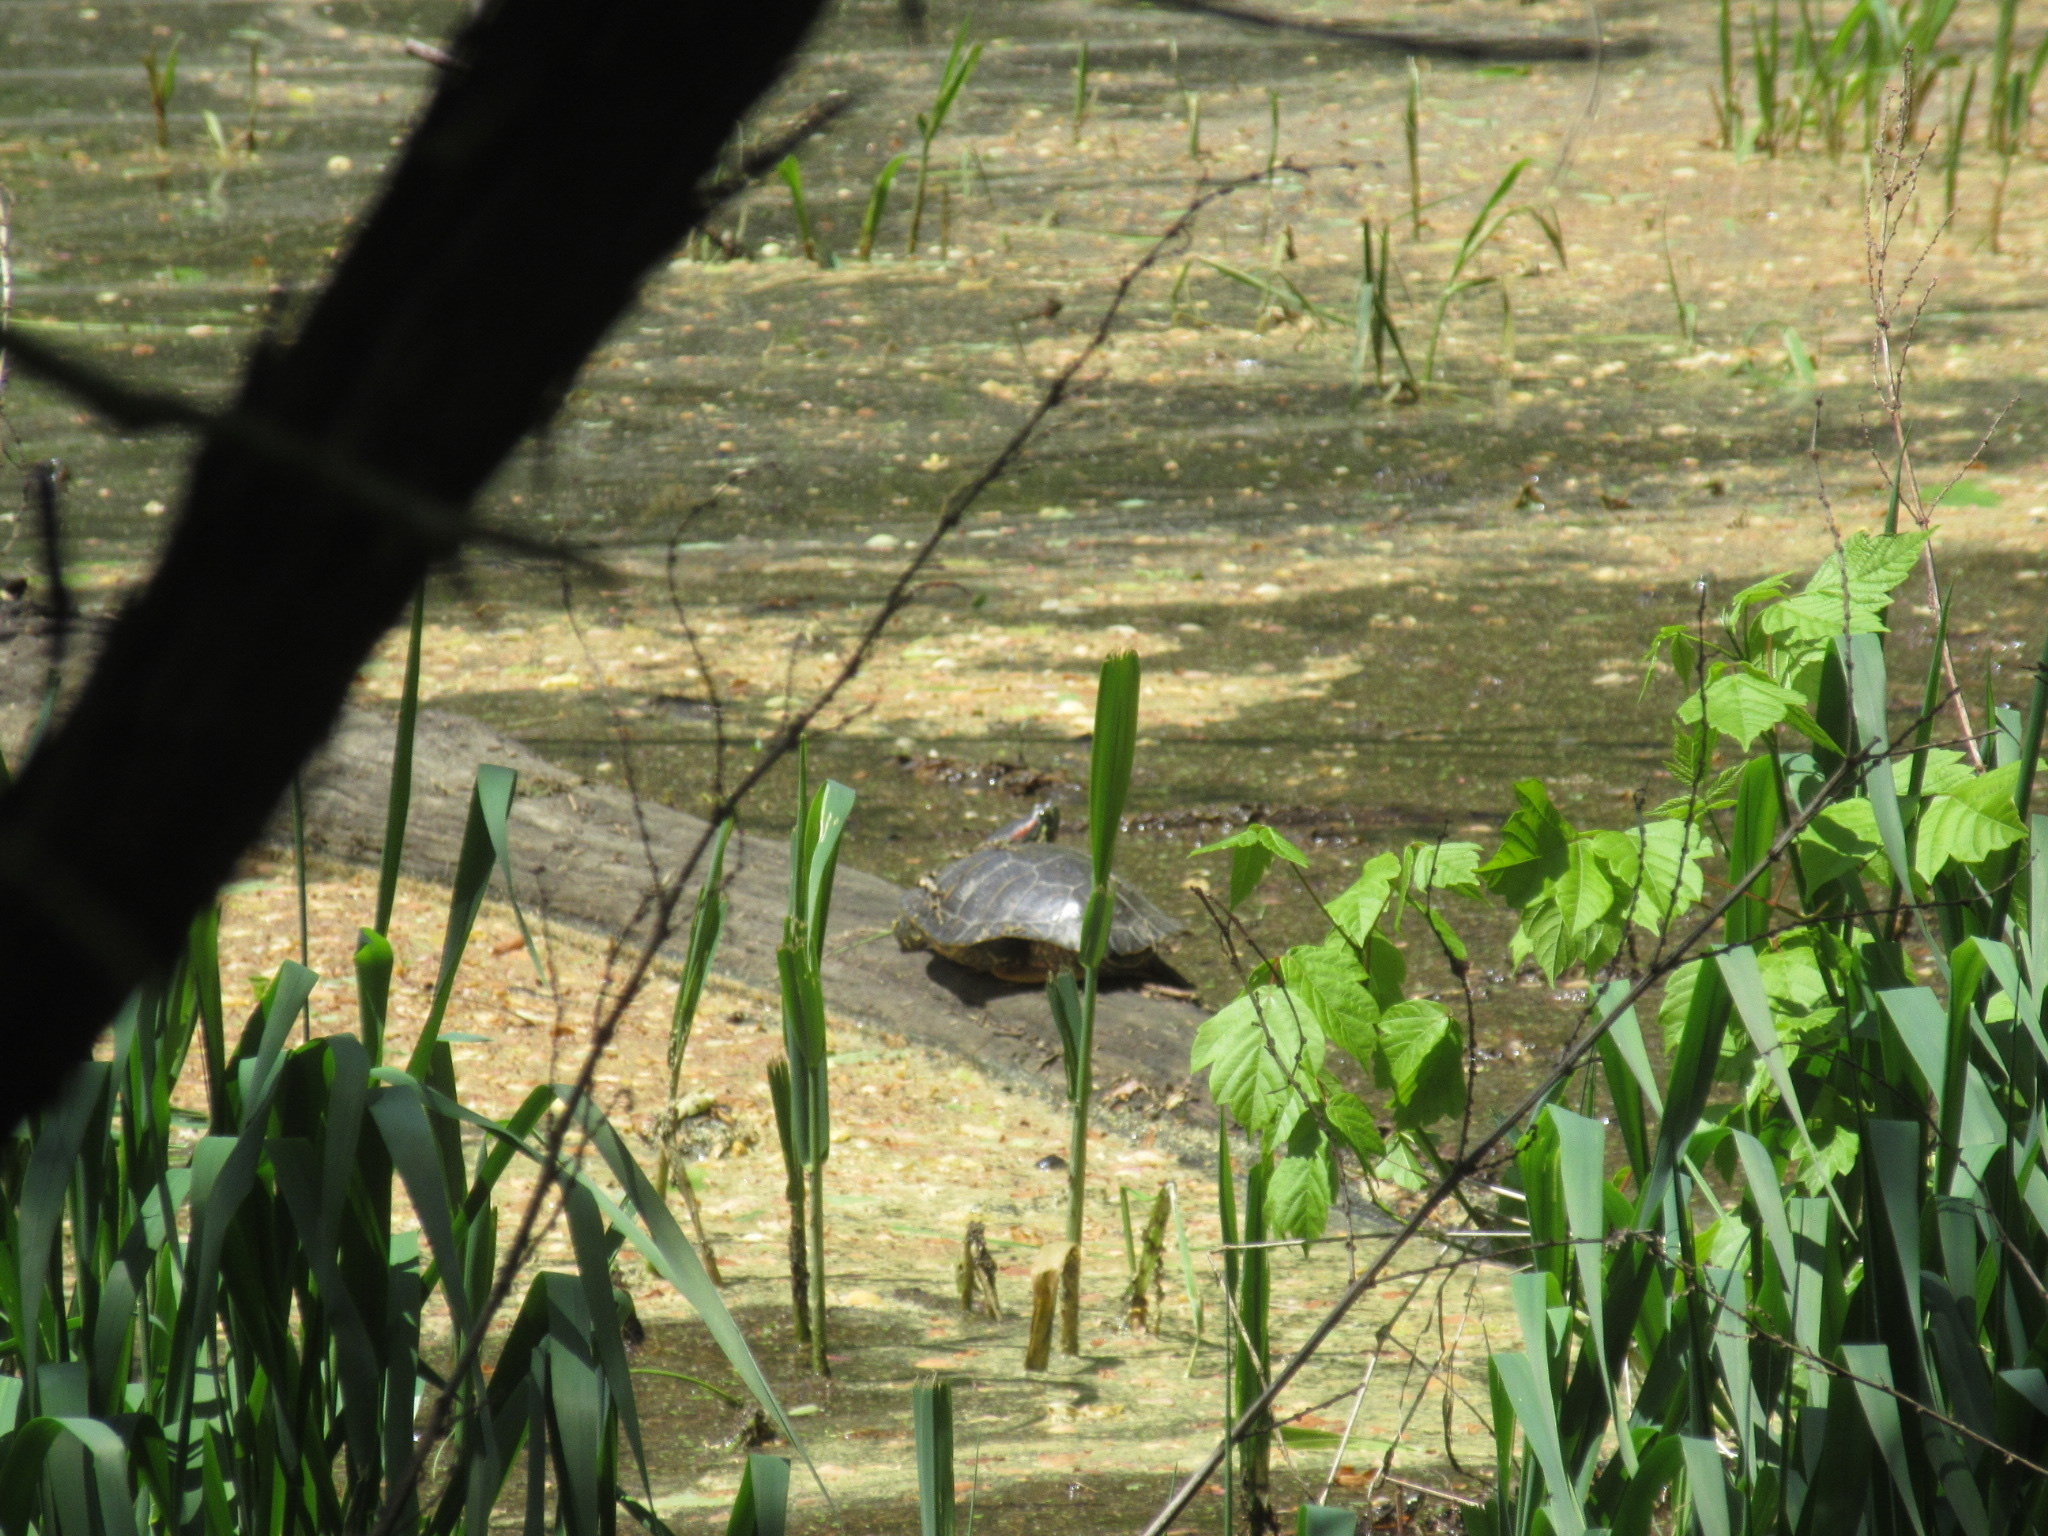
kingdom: Animalia
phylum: Chordata
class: Testudines
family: Emydidae
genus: Trachemys
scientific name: Trachemys scripta
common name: Slider
